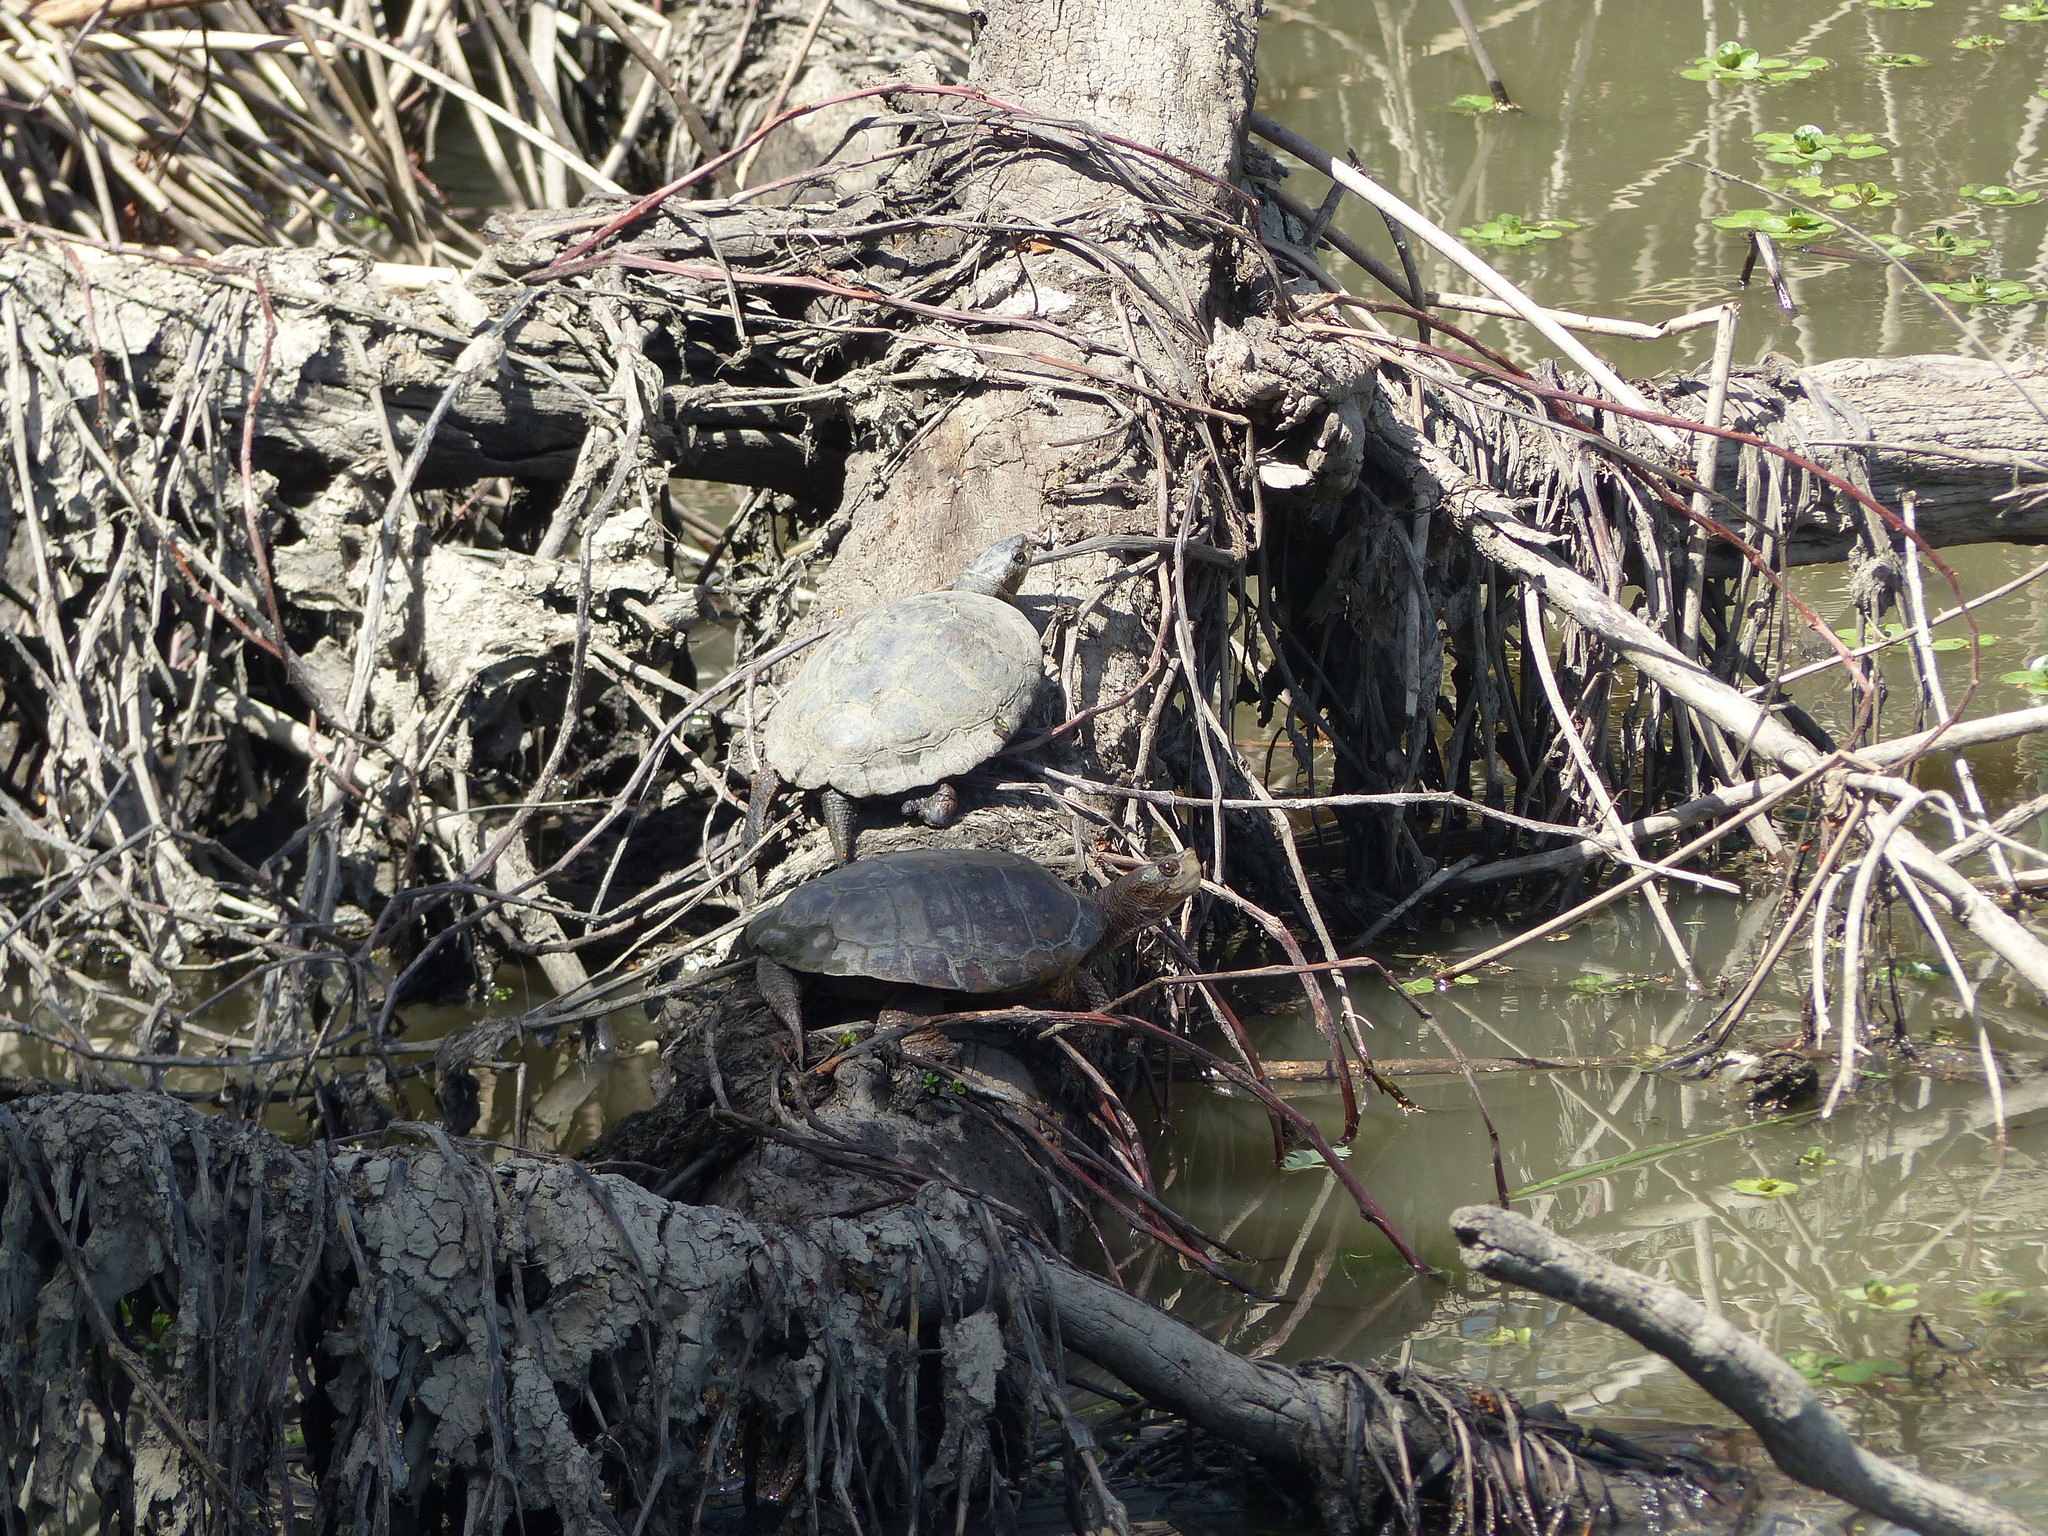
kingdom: Animalia
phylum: Chordata
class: Testudines
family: Emydidae
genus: Actinemys
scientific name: Actinemys marmorata
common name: Western pond turtle
